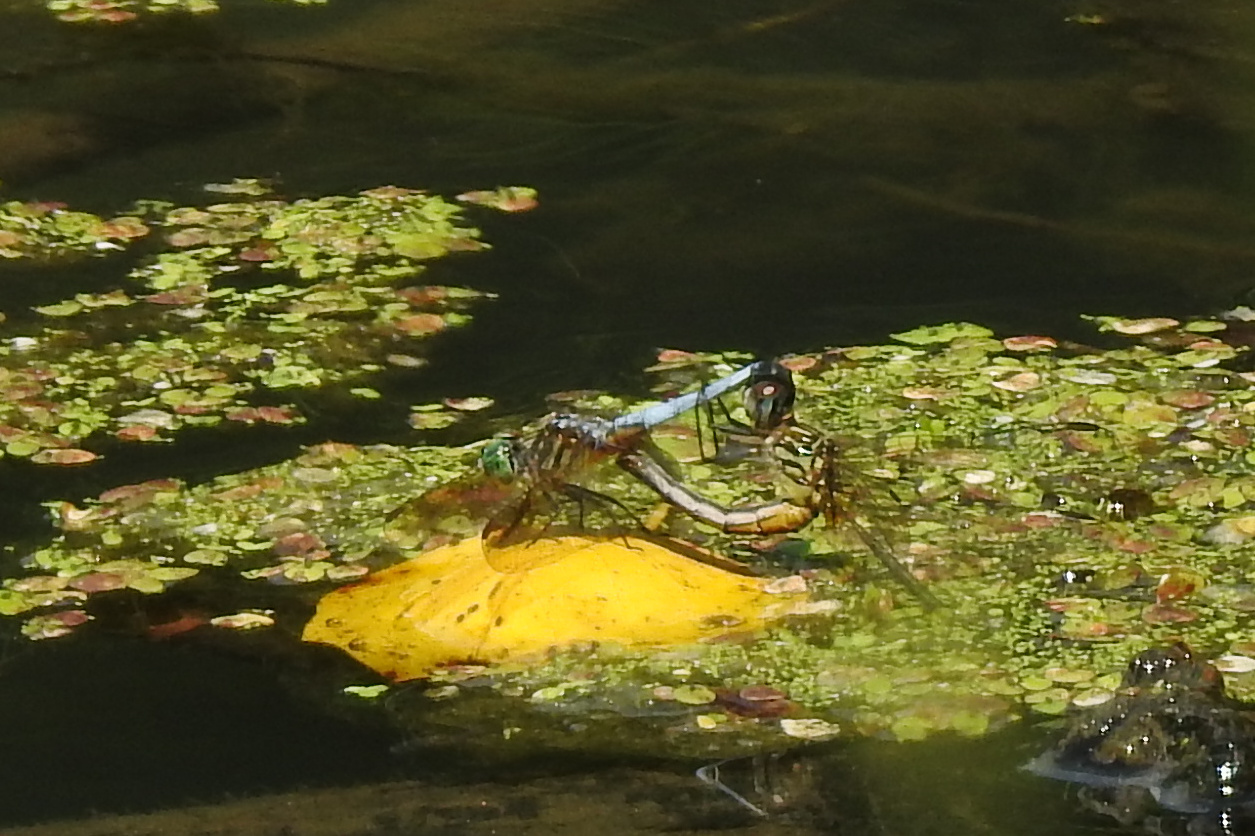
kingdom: Animalia
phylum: Arthropoda
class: Insecta
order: Odonata
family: Libellulidae
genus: Pachydiplax
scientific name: Pachydiplax longipennis
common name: Blue dasher
